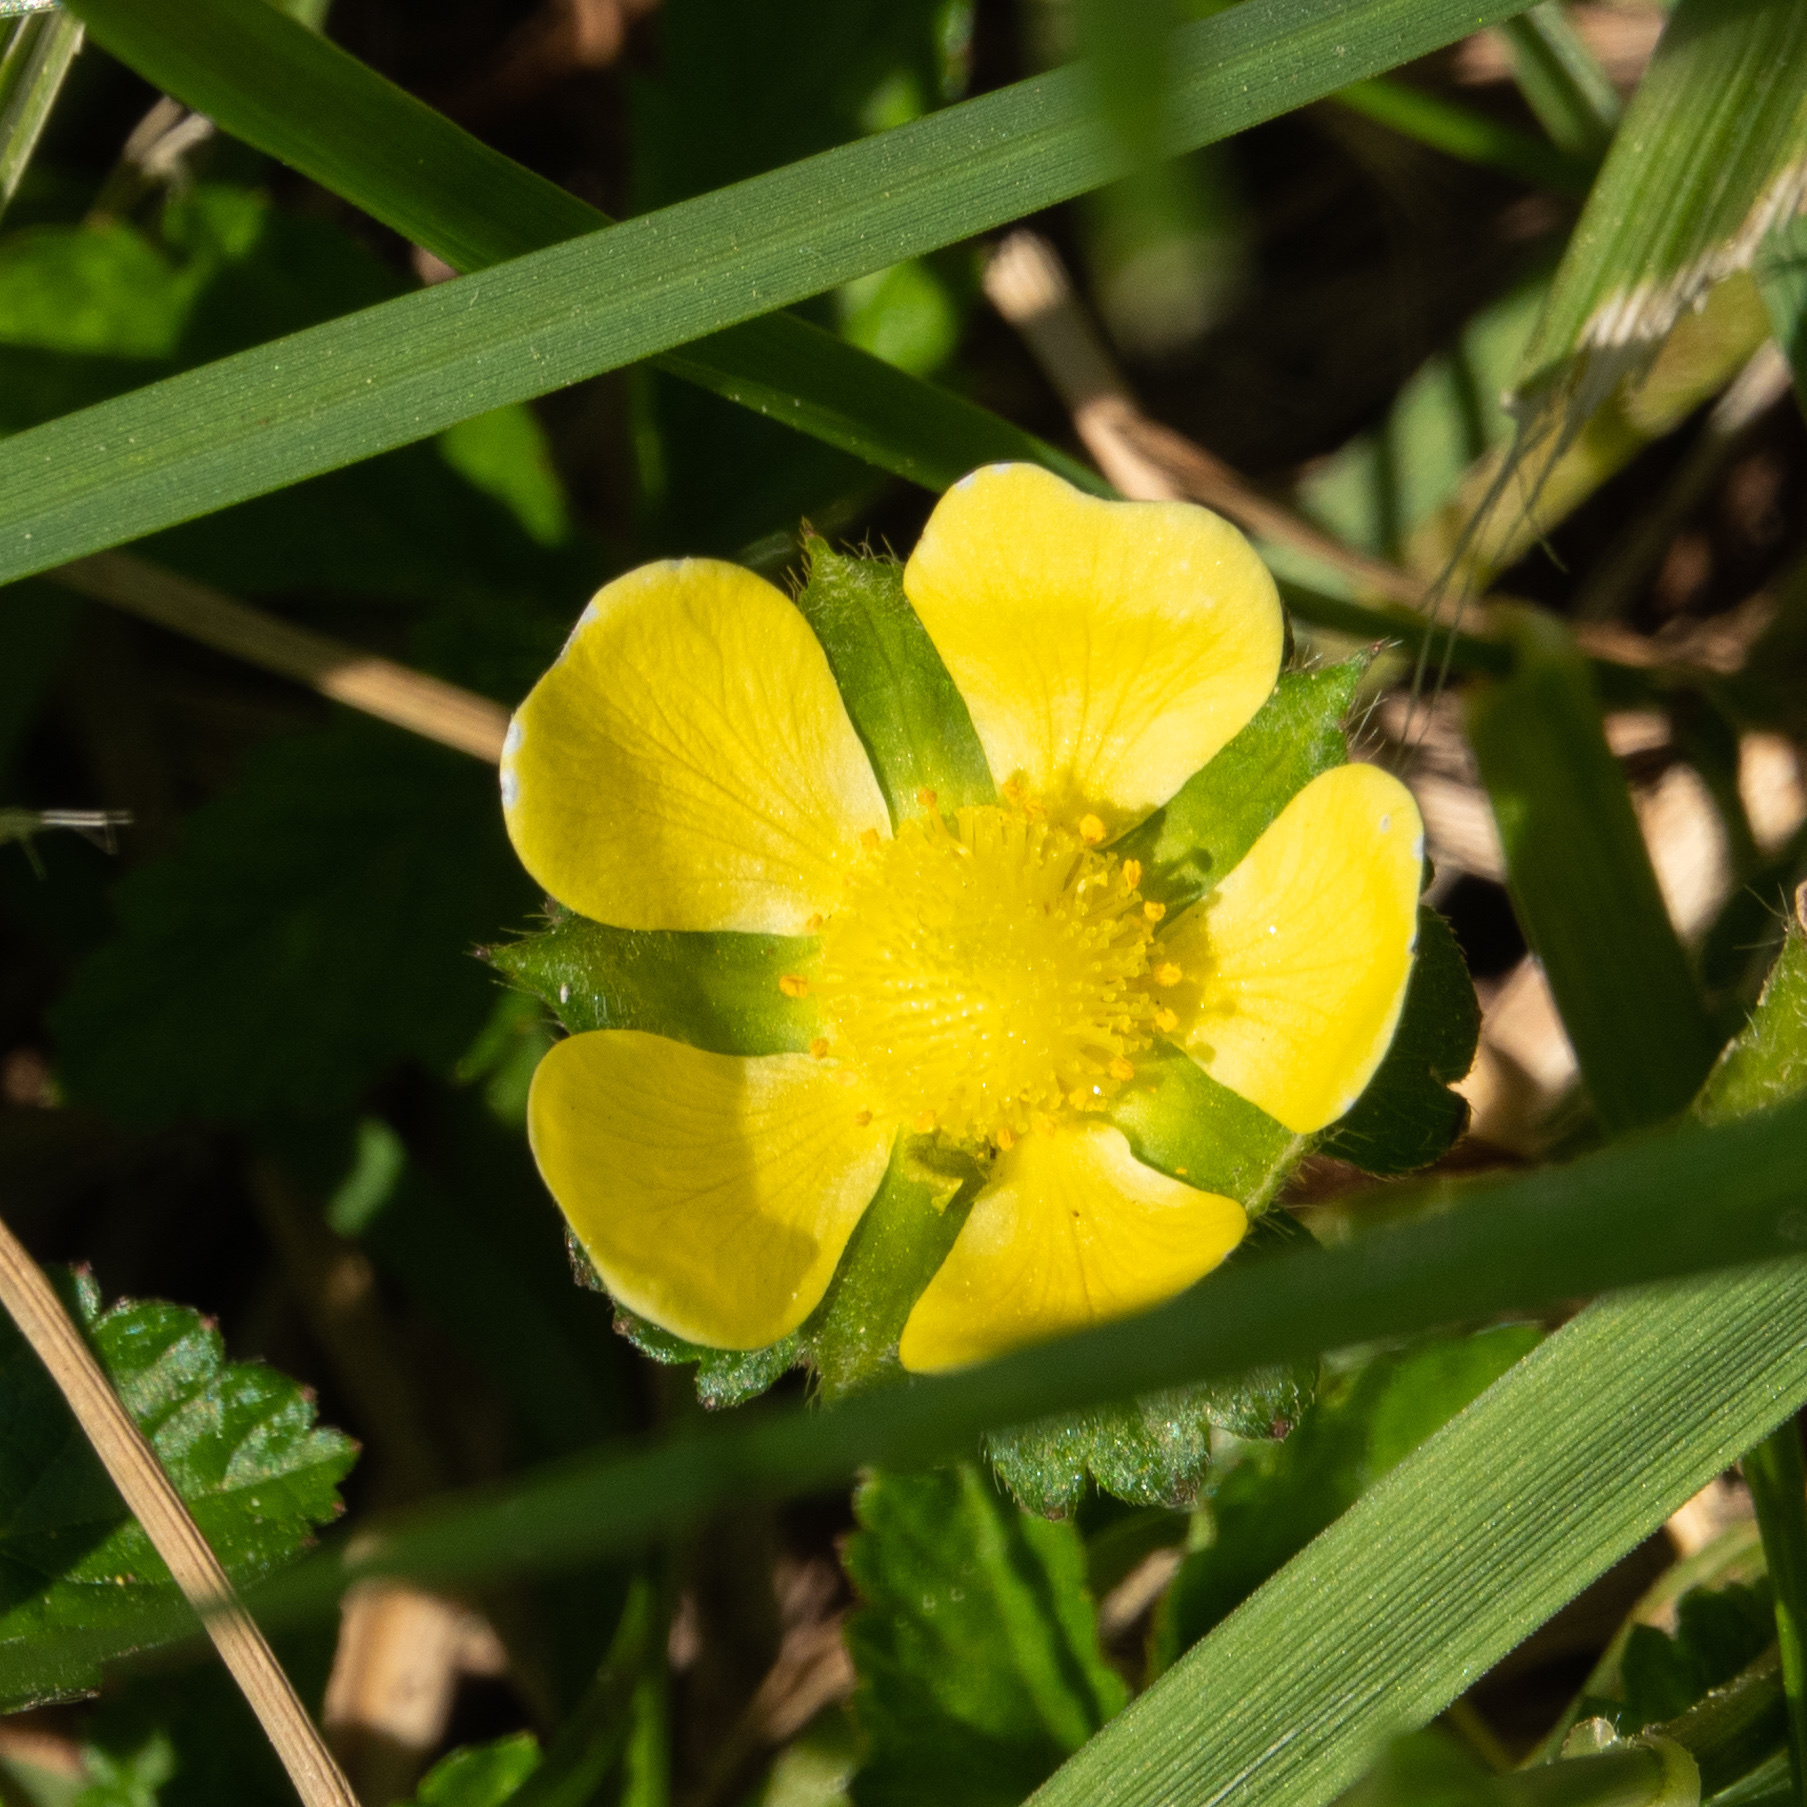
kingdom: Plantae
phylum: Tracheophyta
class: Magnoliopsida
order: Rosales
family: Rosaceae
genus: Potentilla
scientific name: Potentilla indica
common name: Yellow-flowered strawberry
